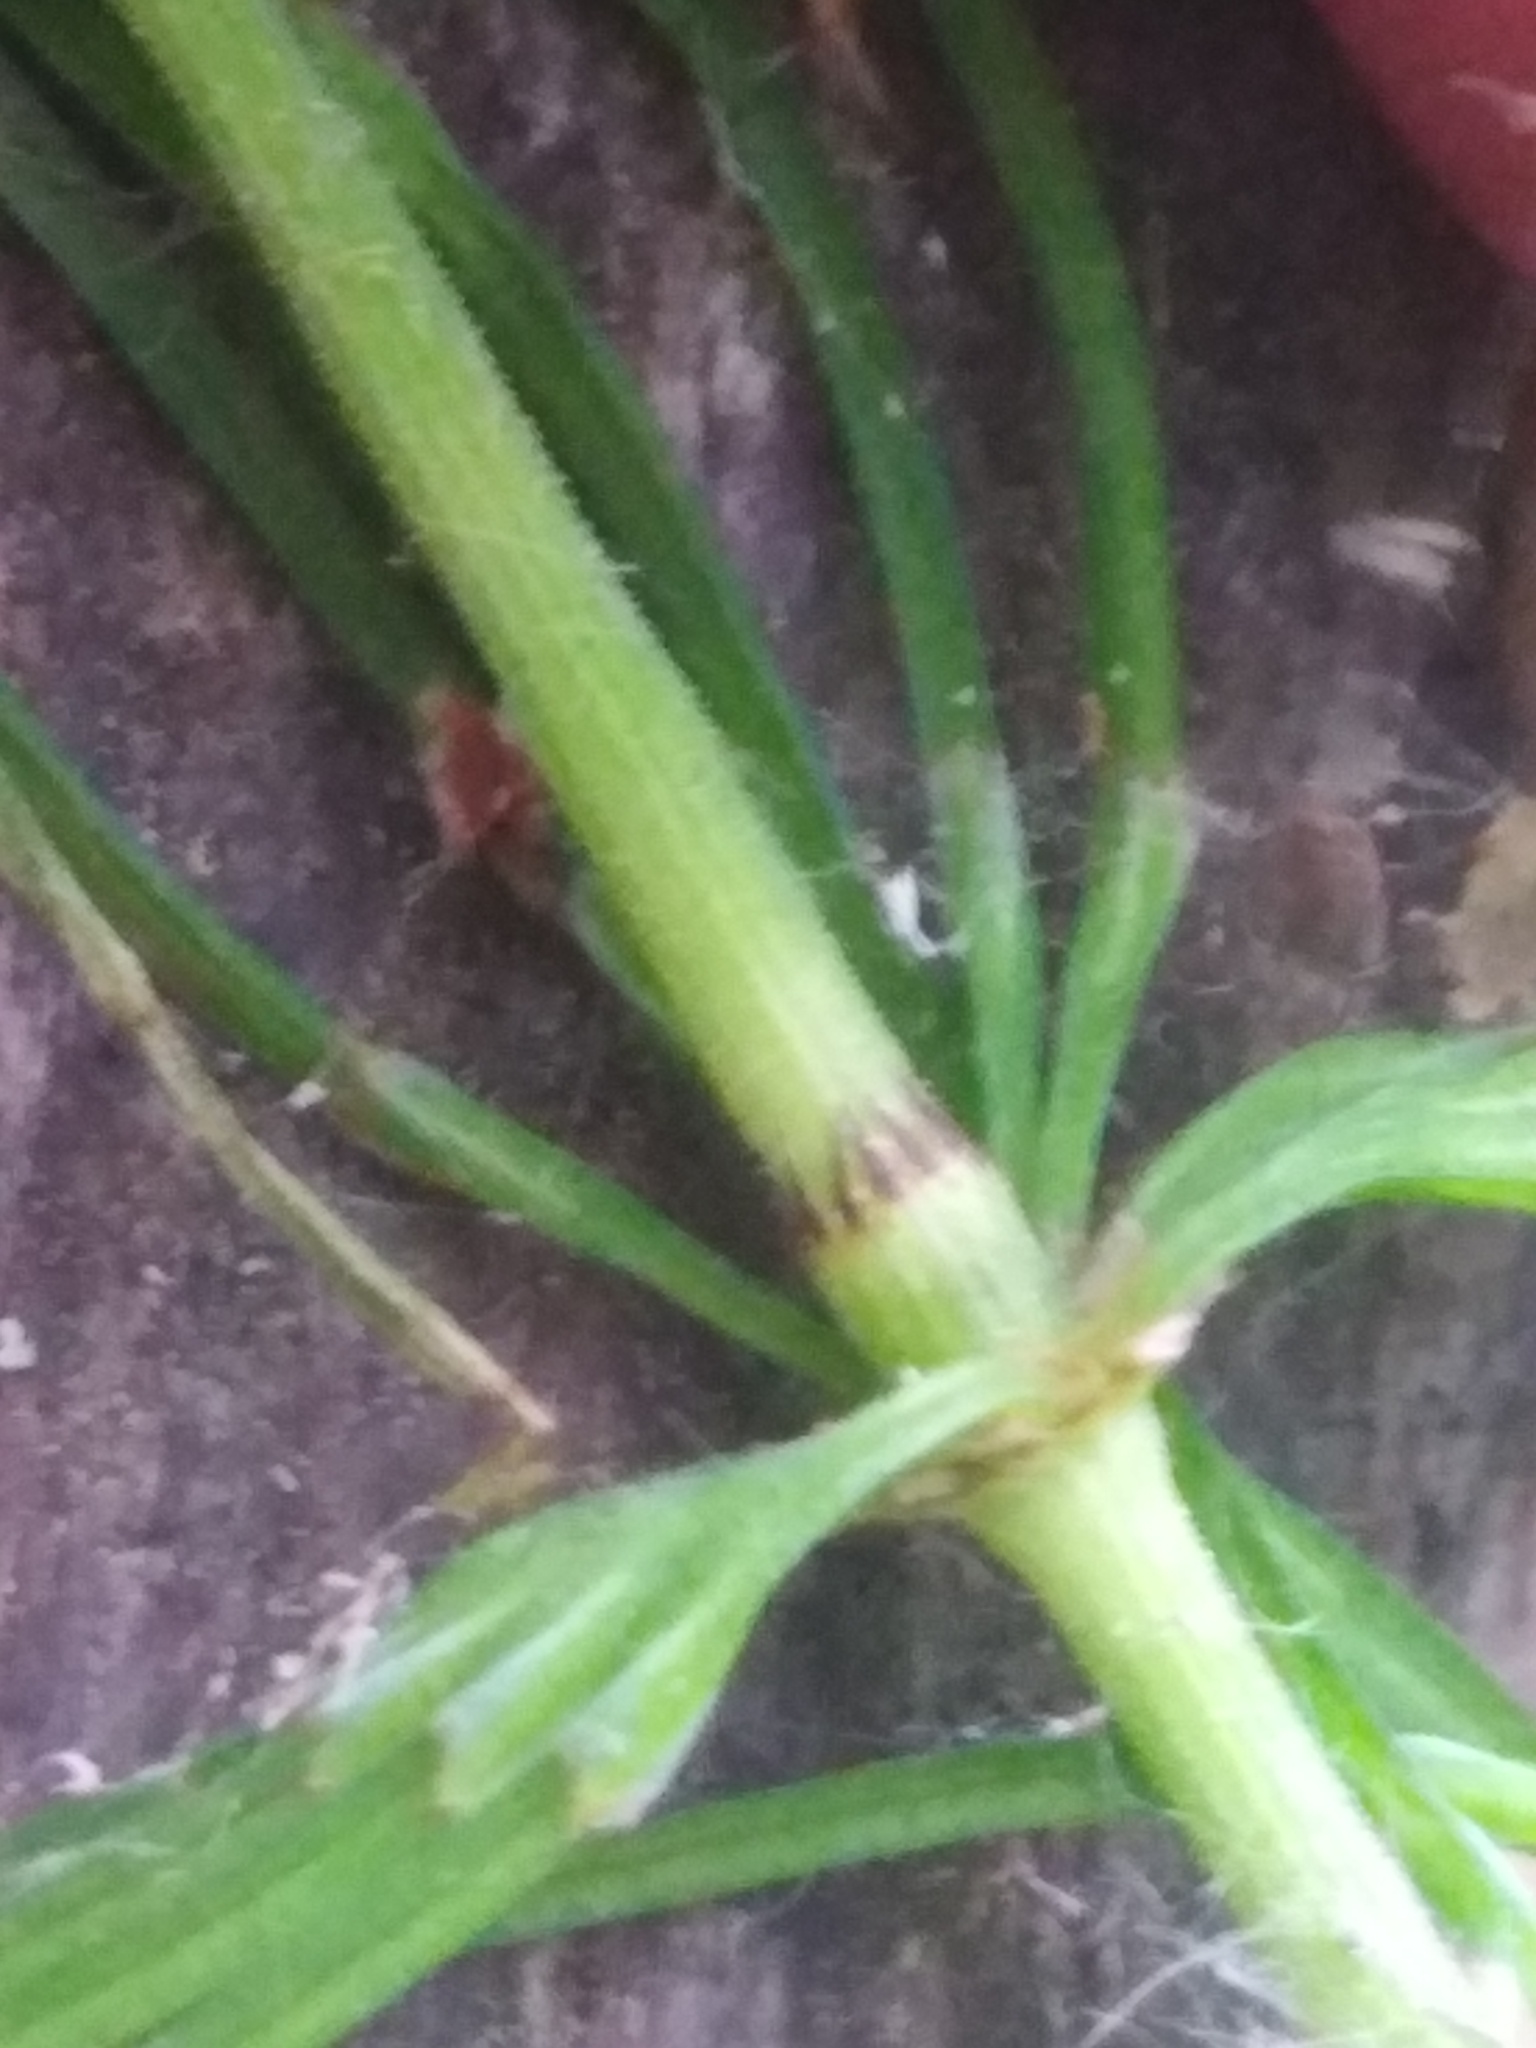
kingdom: Plantae
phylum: Tracheophyta
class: Polypodiopsida
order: Equisetales
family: Equisetaceae
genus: Equisetum
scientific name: Equisetum pratense
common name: Meadow horsetail
